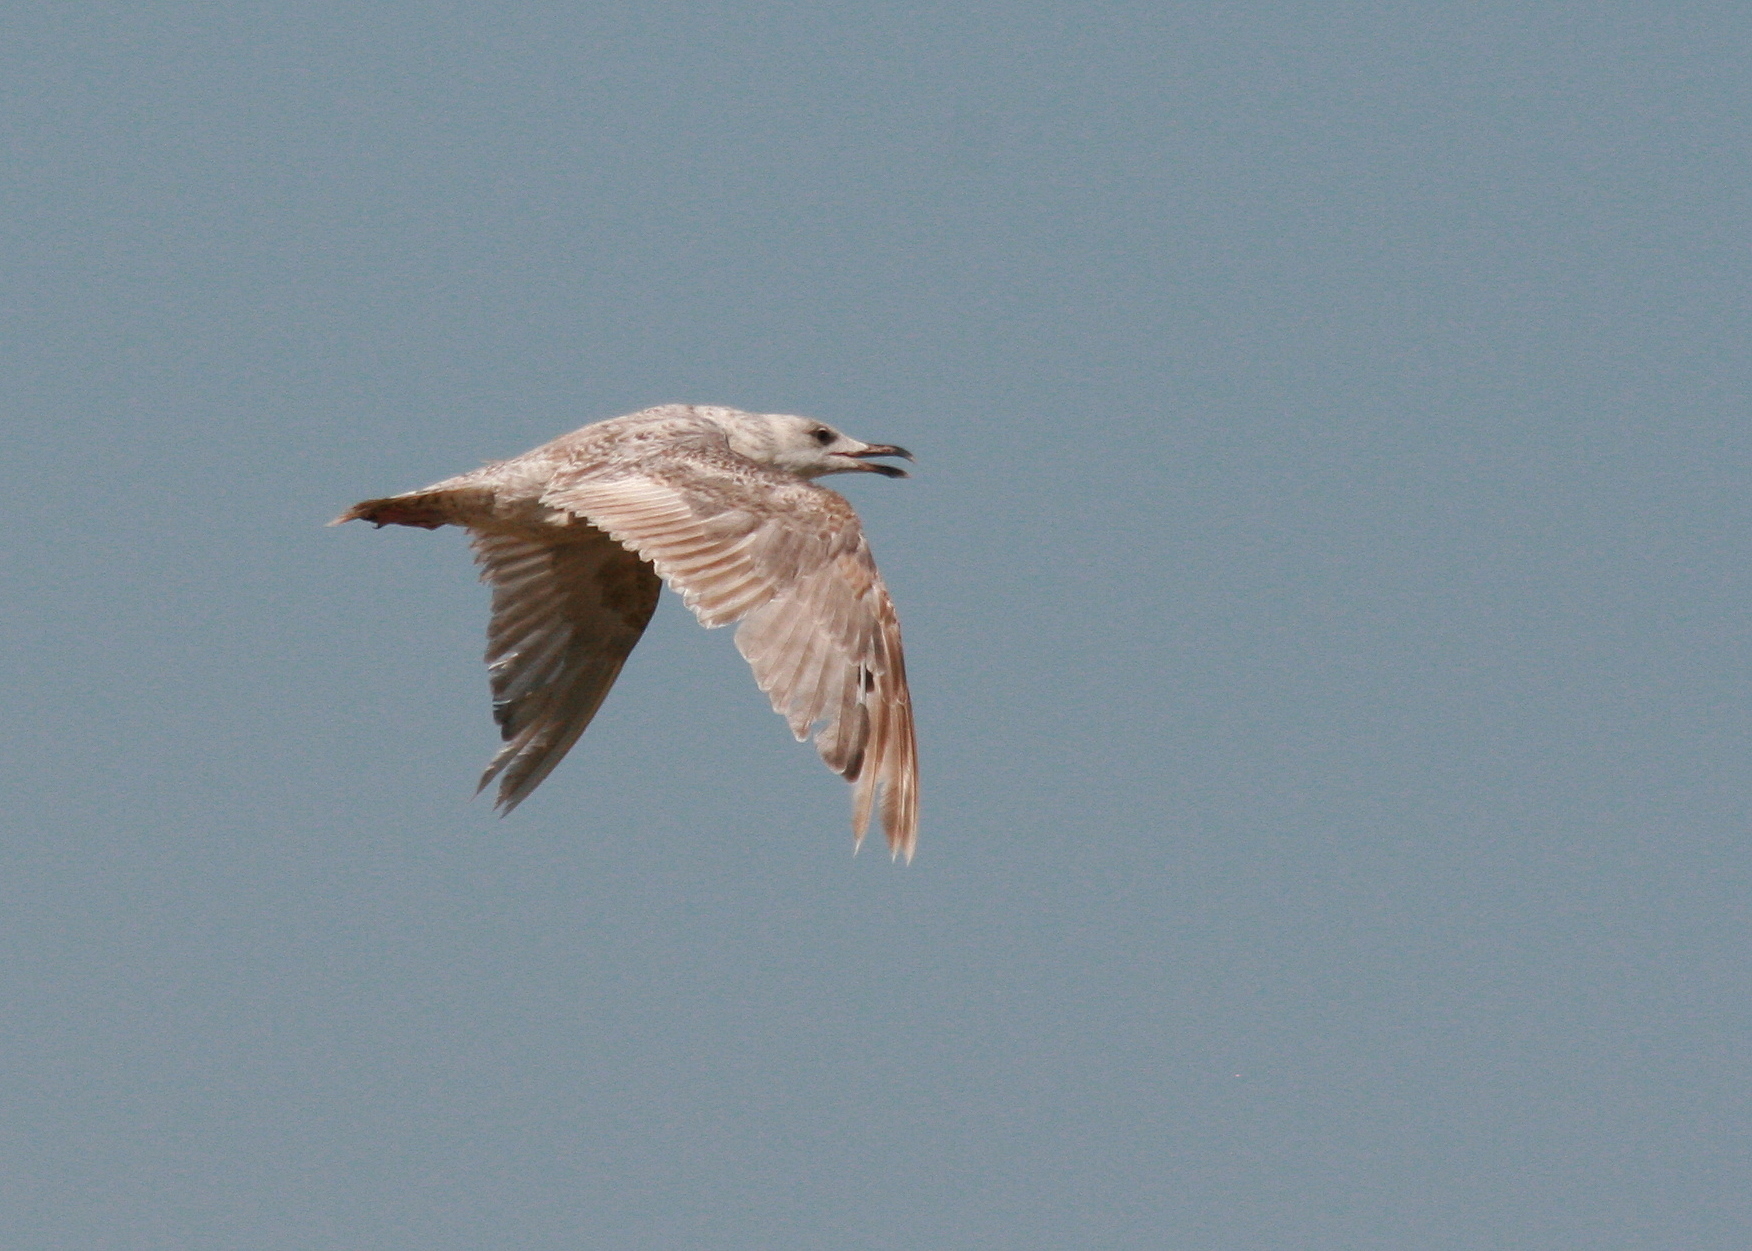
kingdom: Animalia
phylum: Chordata
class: Aves
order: Charadriiformes
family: Laridae
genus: Larus
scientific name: Larus argentatus
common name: Herring gull
